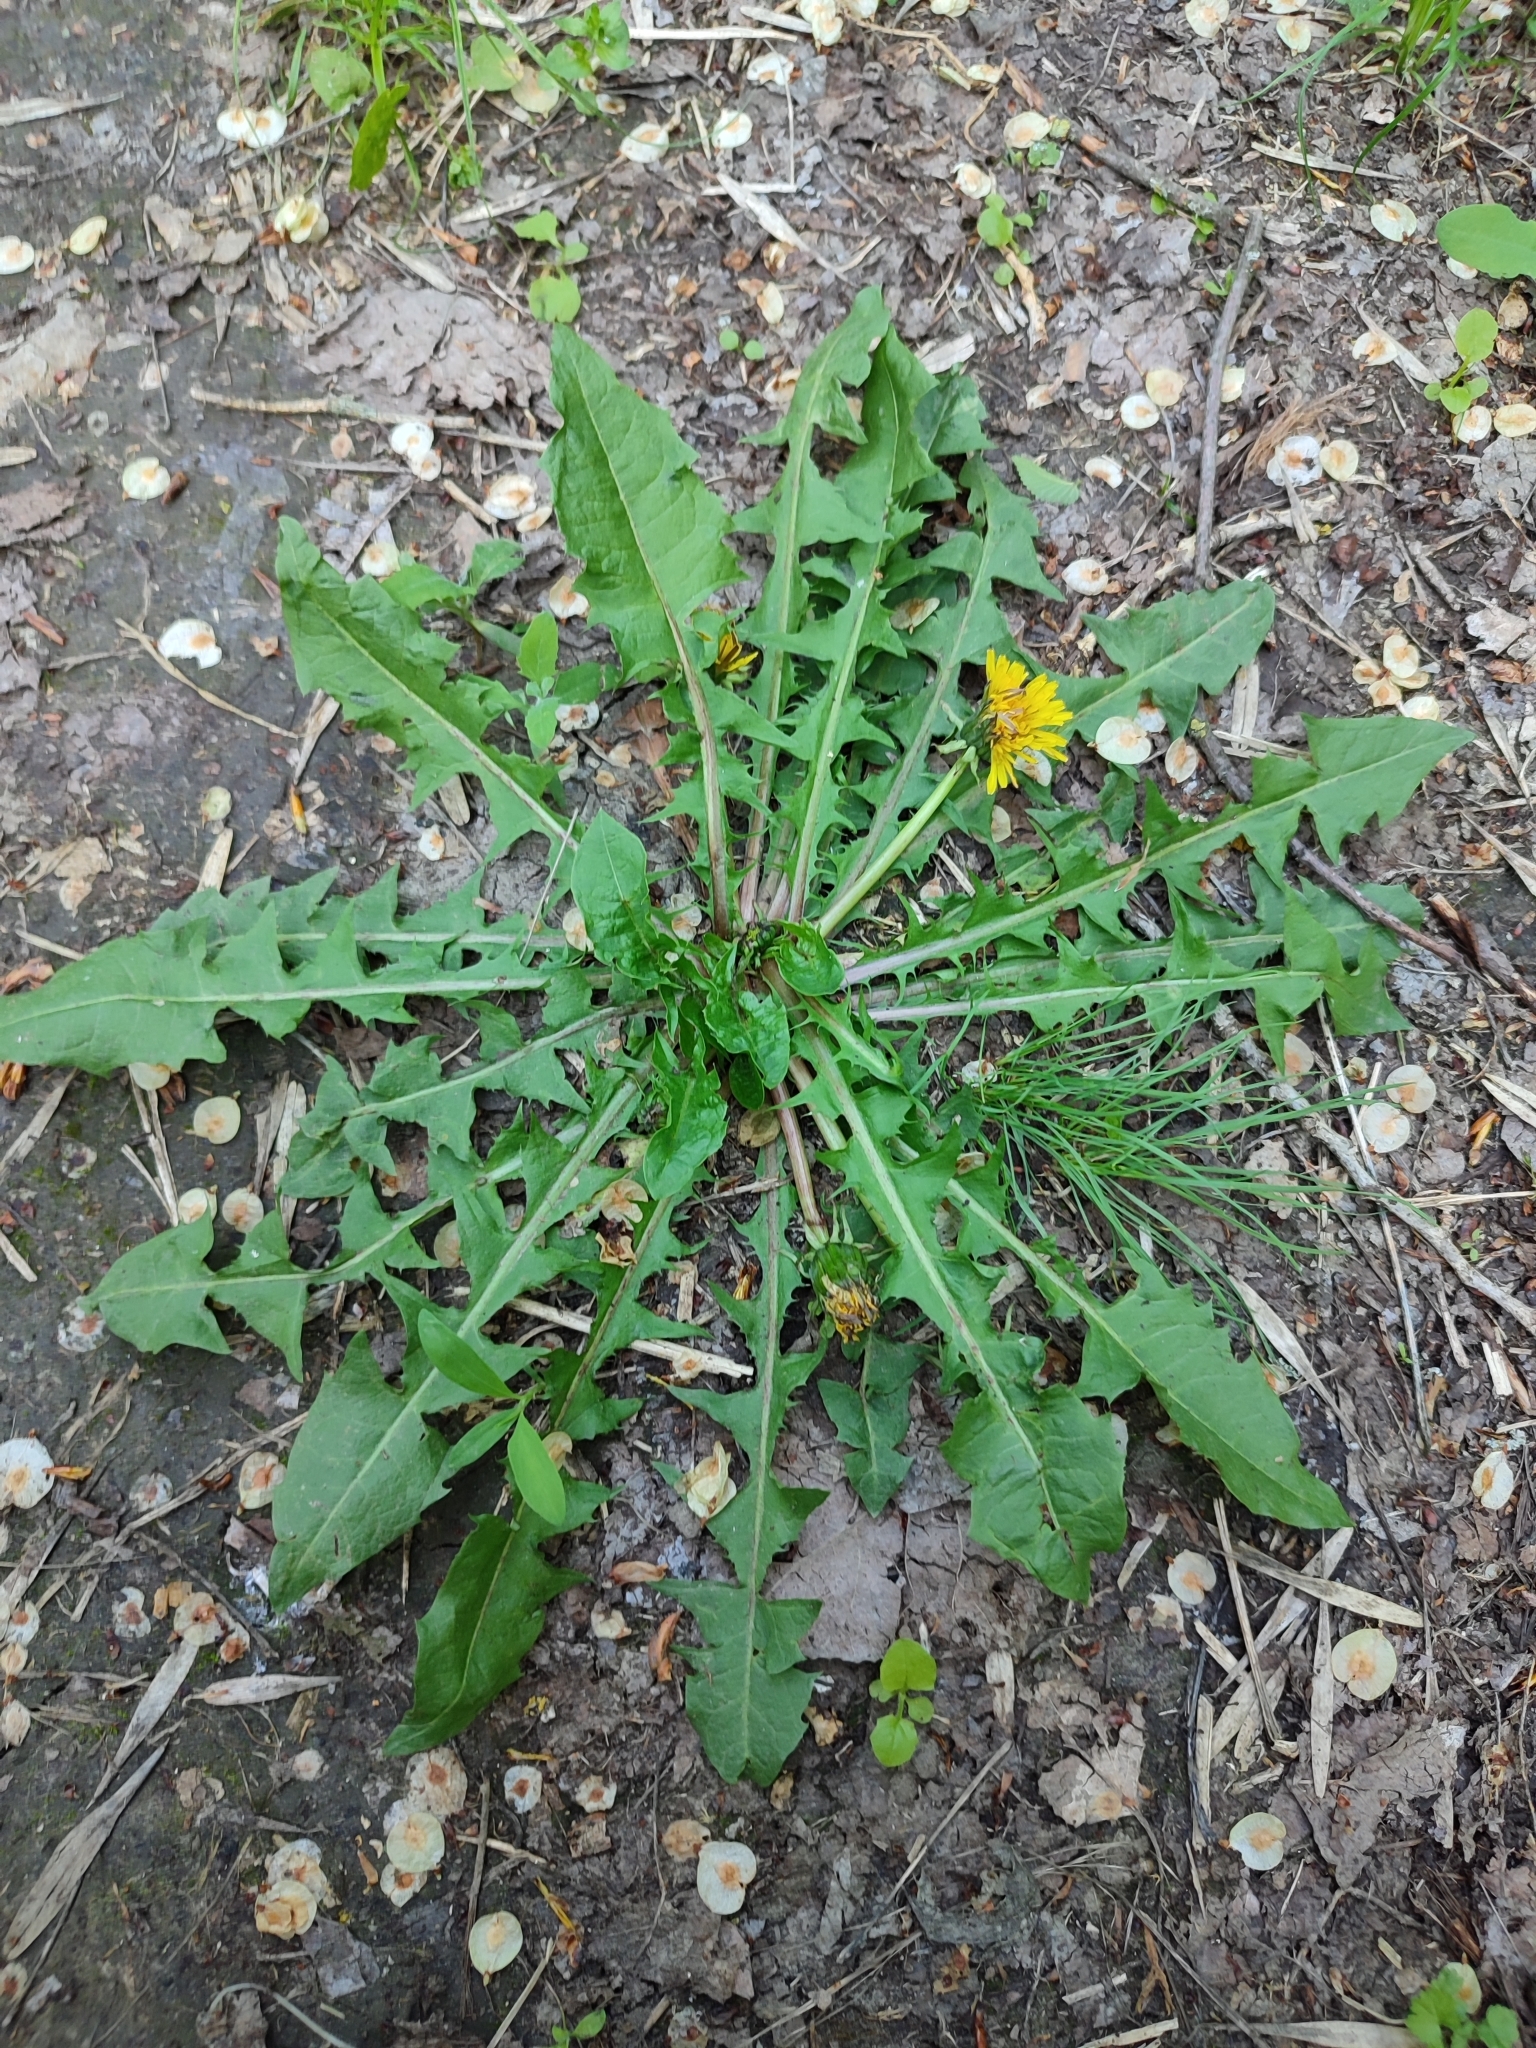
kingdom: Plantae
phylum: Tracheophyta
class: Magnoliopsida
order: Asterales
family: Asteraceae
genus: Taraxacum
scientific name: Taraxacum officinale
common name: Common dandelion
